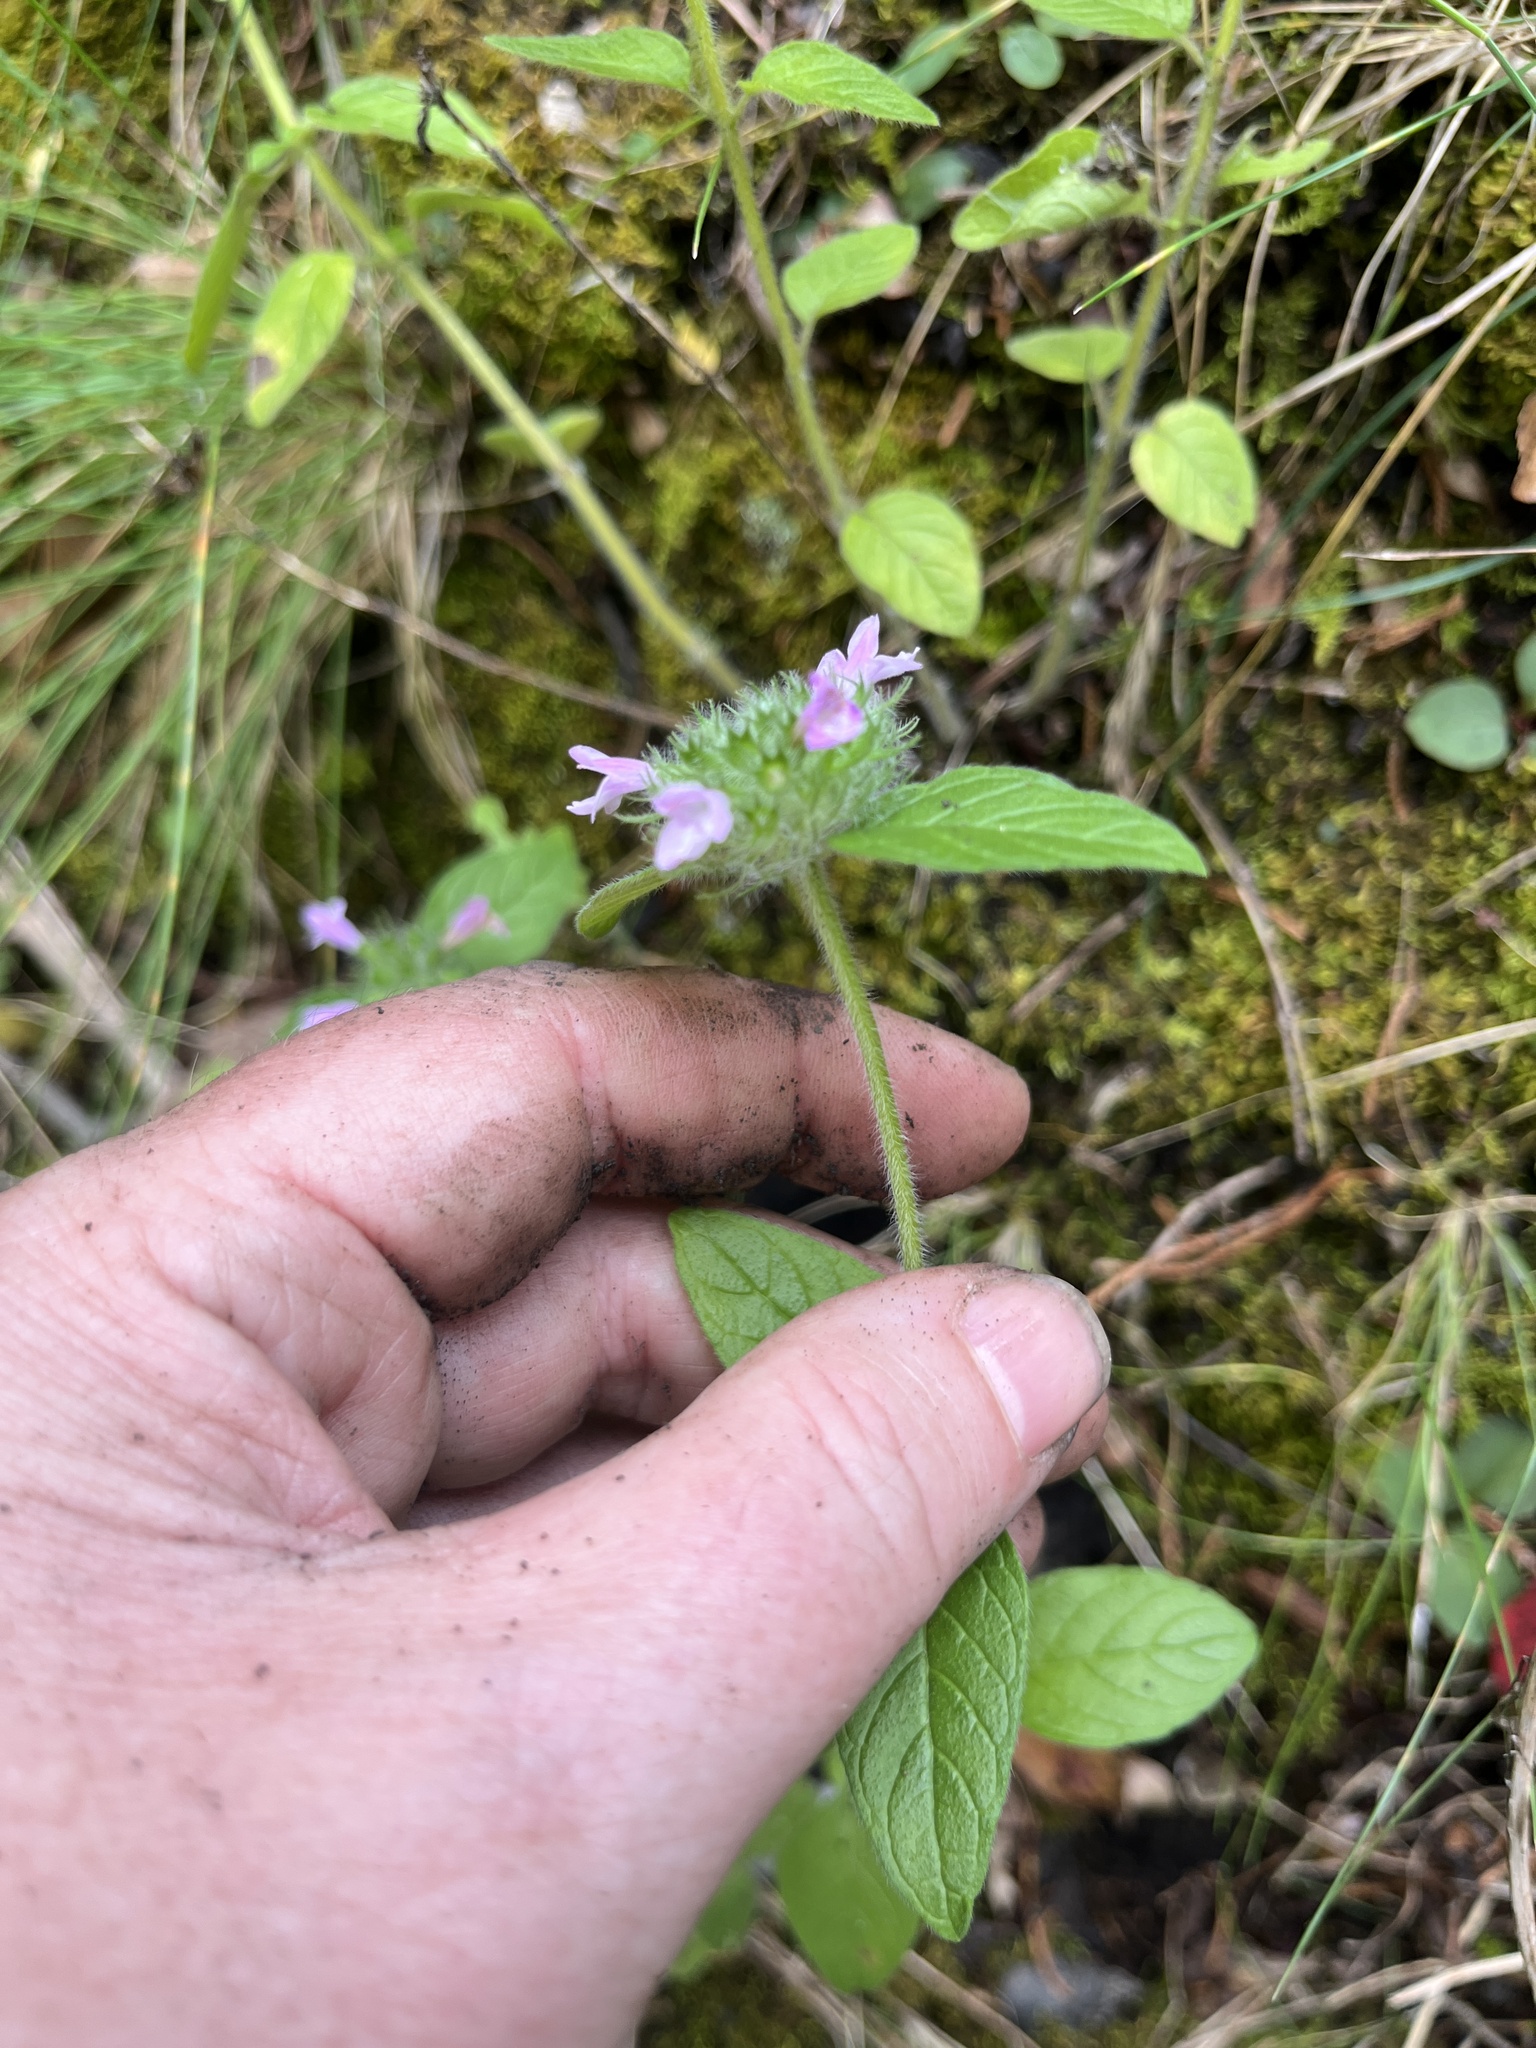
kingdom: Plantae
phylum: Tracheophyta
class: Magnoliopsida
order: Lamiales
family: Lamiaceae
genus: Clinopodium
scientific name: Clinopodium vulgare
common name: Wild basil
